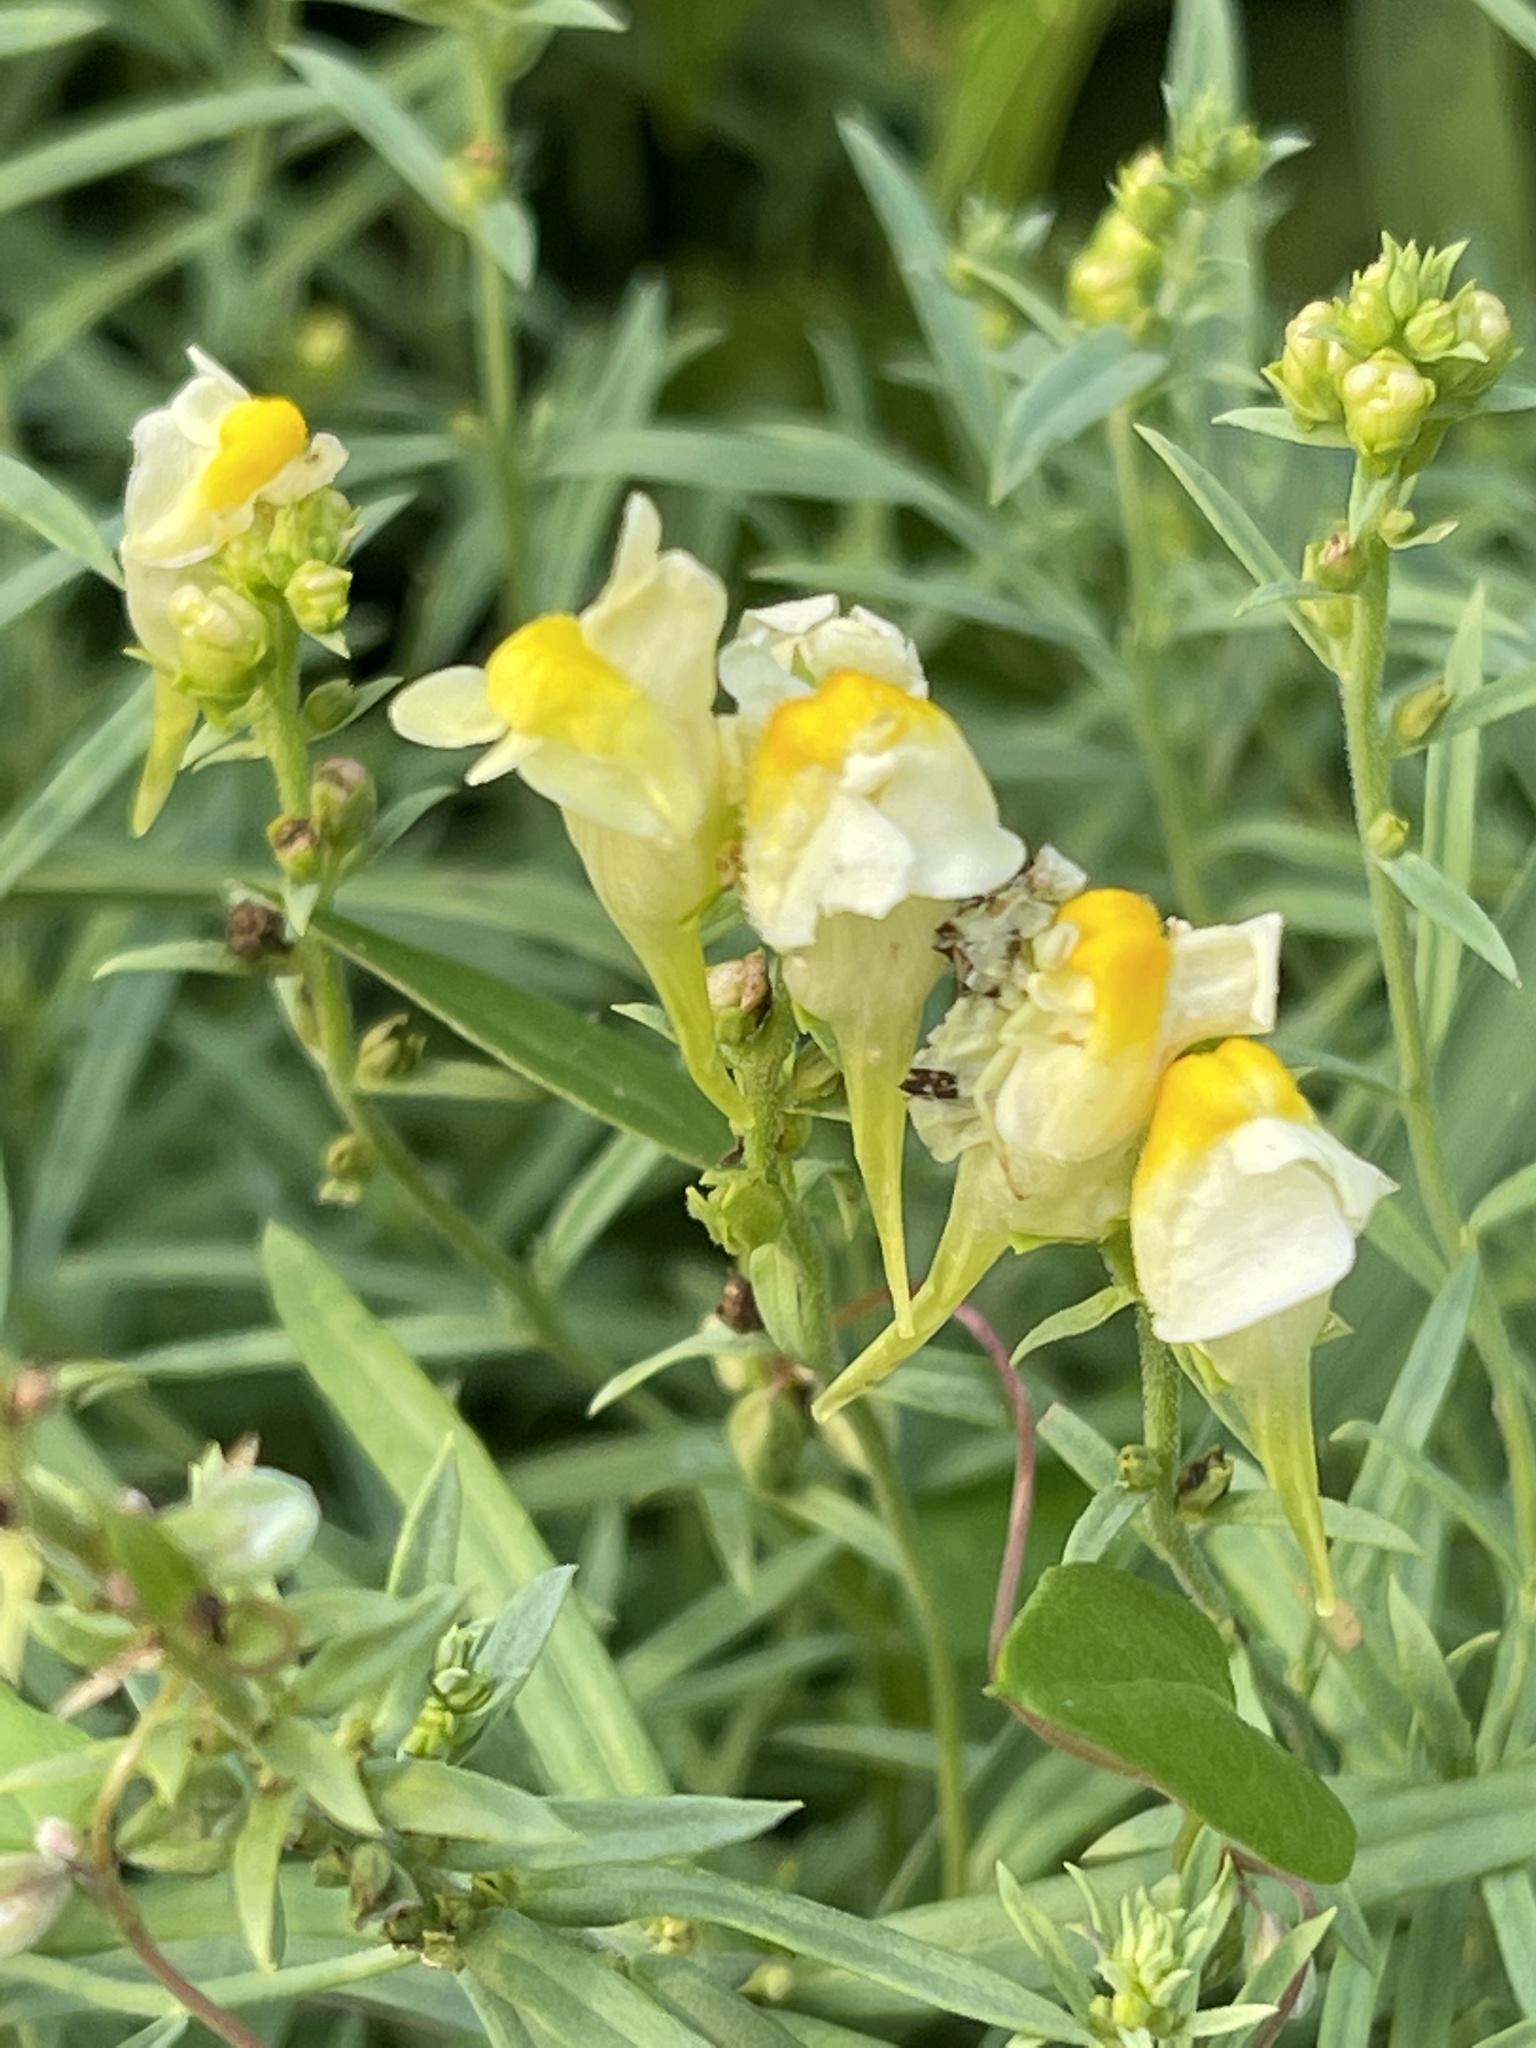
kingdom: Plantae
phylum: Tracheophyta
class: Magnoliopsida
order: Lamiales
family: Plantaginaceae
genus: Linaria
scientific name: Linaria vulgaris
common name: Butter and eggs
